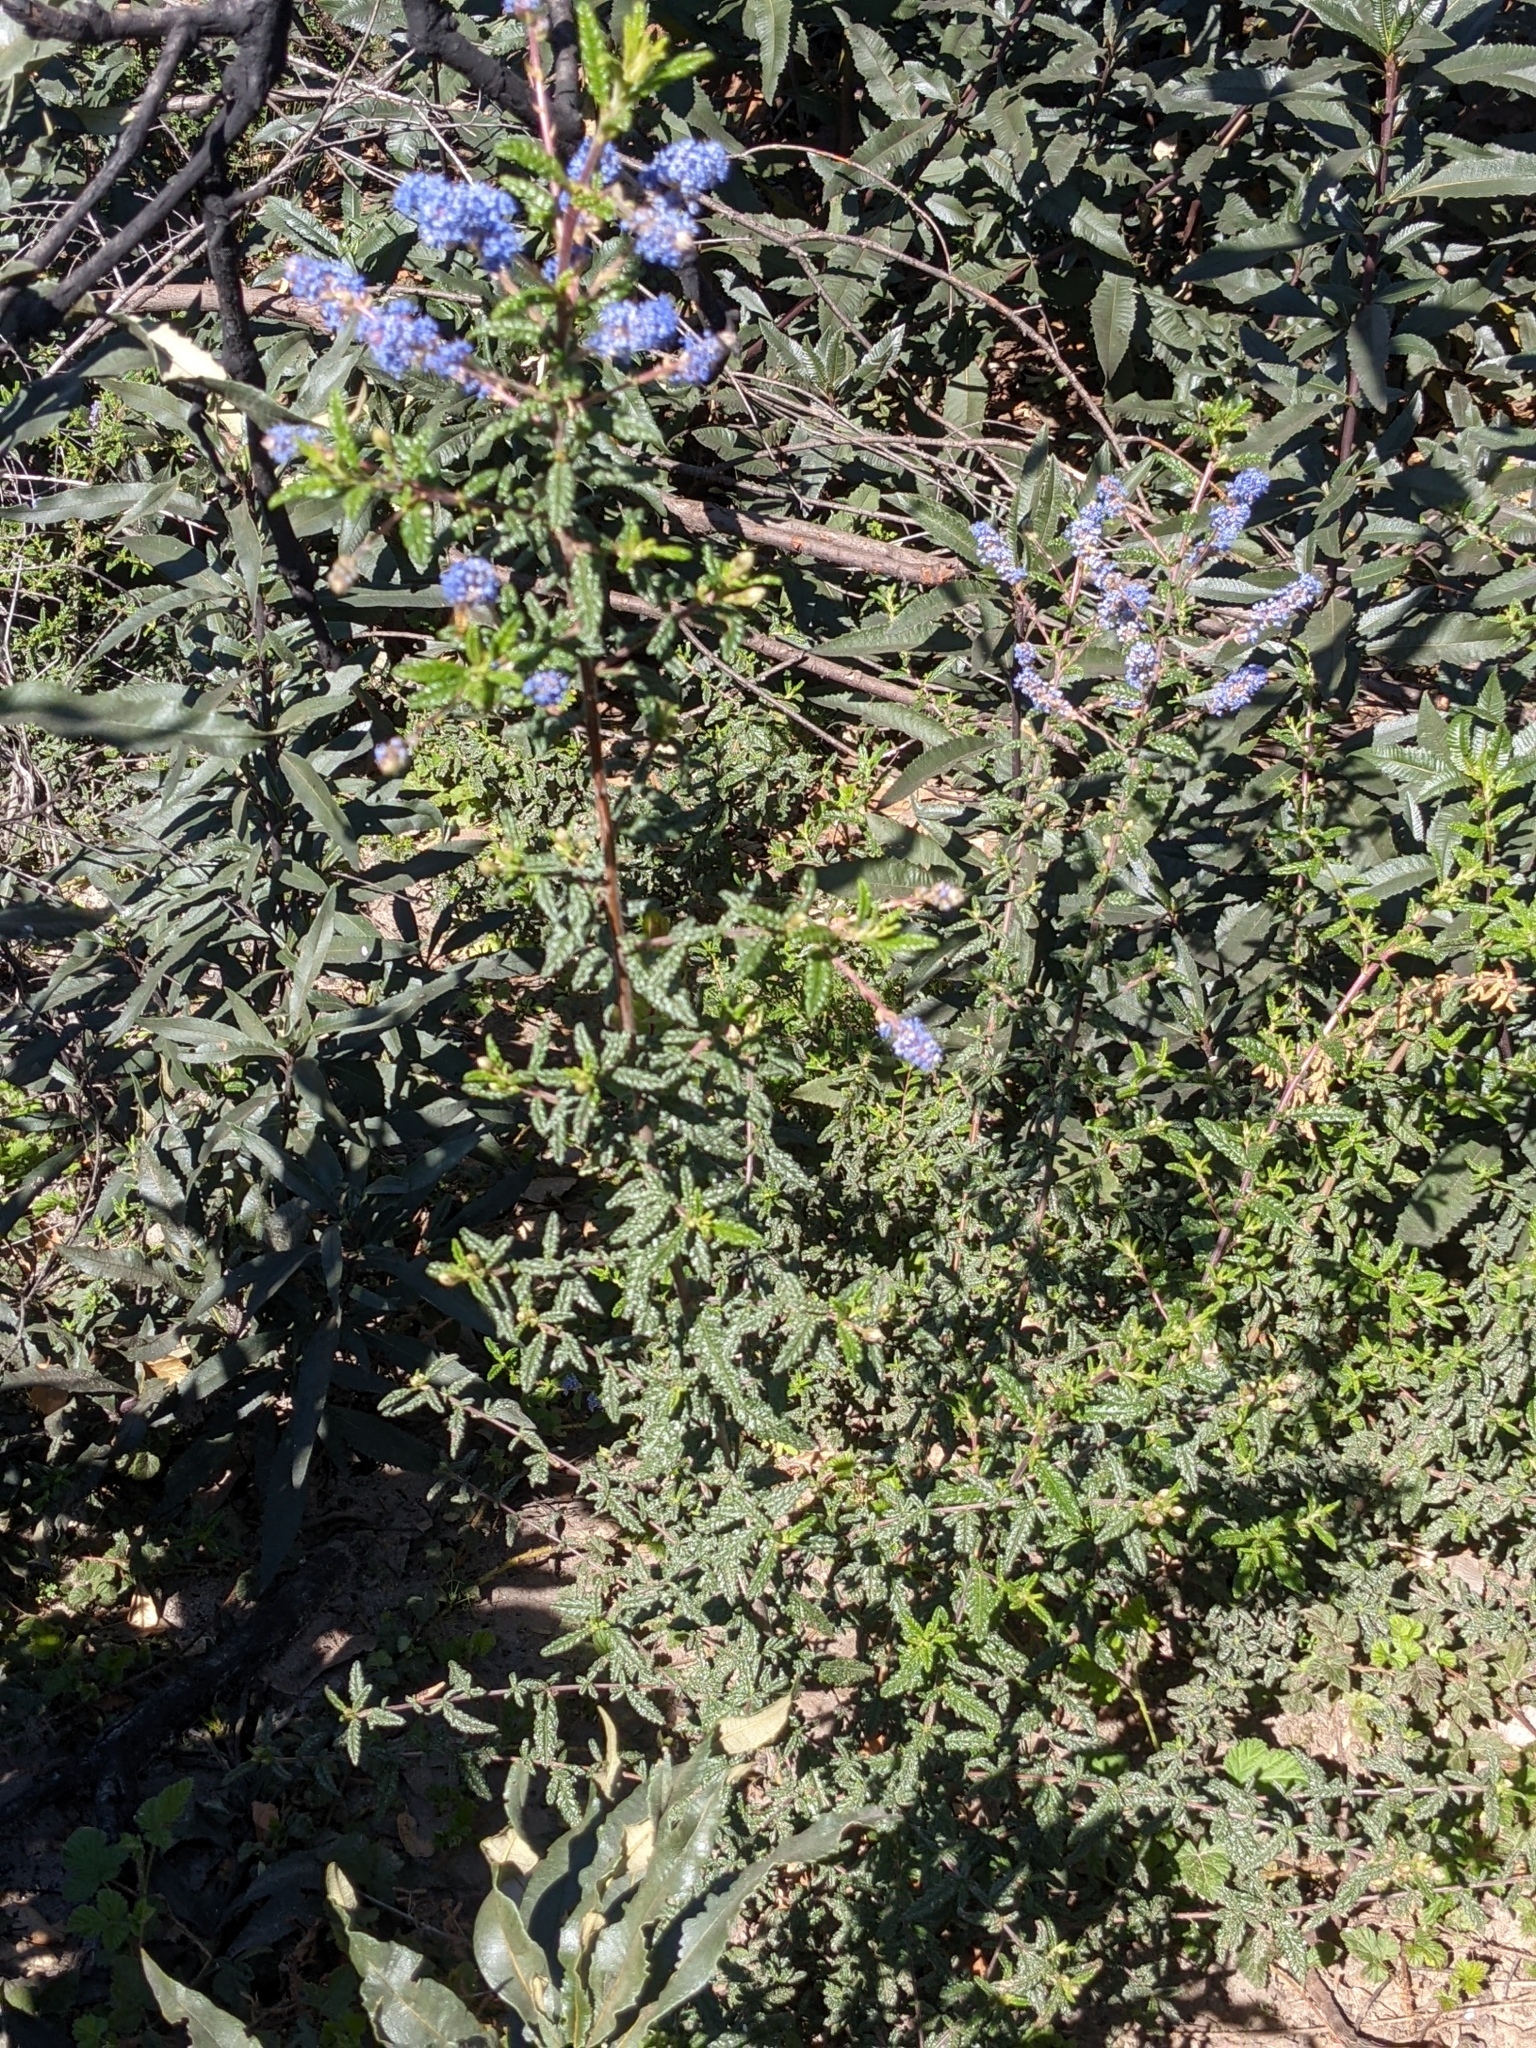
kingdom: Plantae
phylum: Tracheophyta
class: Magnoliopsida
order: Rosales
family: Rhamnaceae
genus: Ceanothus
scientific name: Ceanothus papillosus
